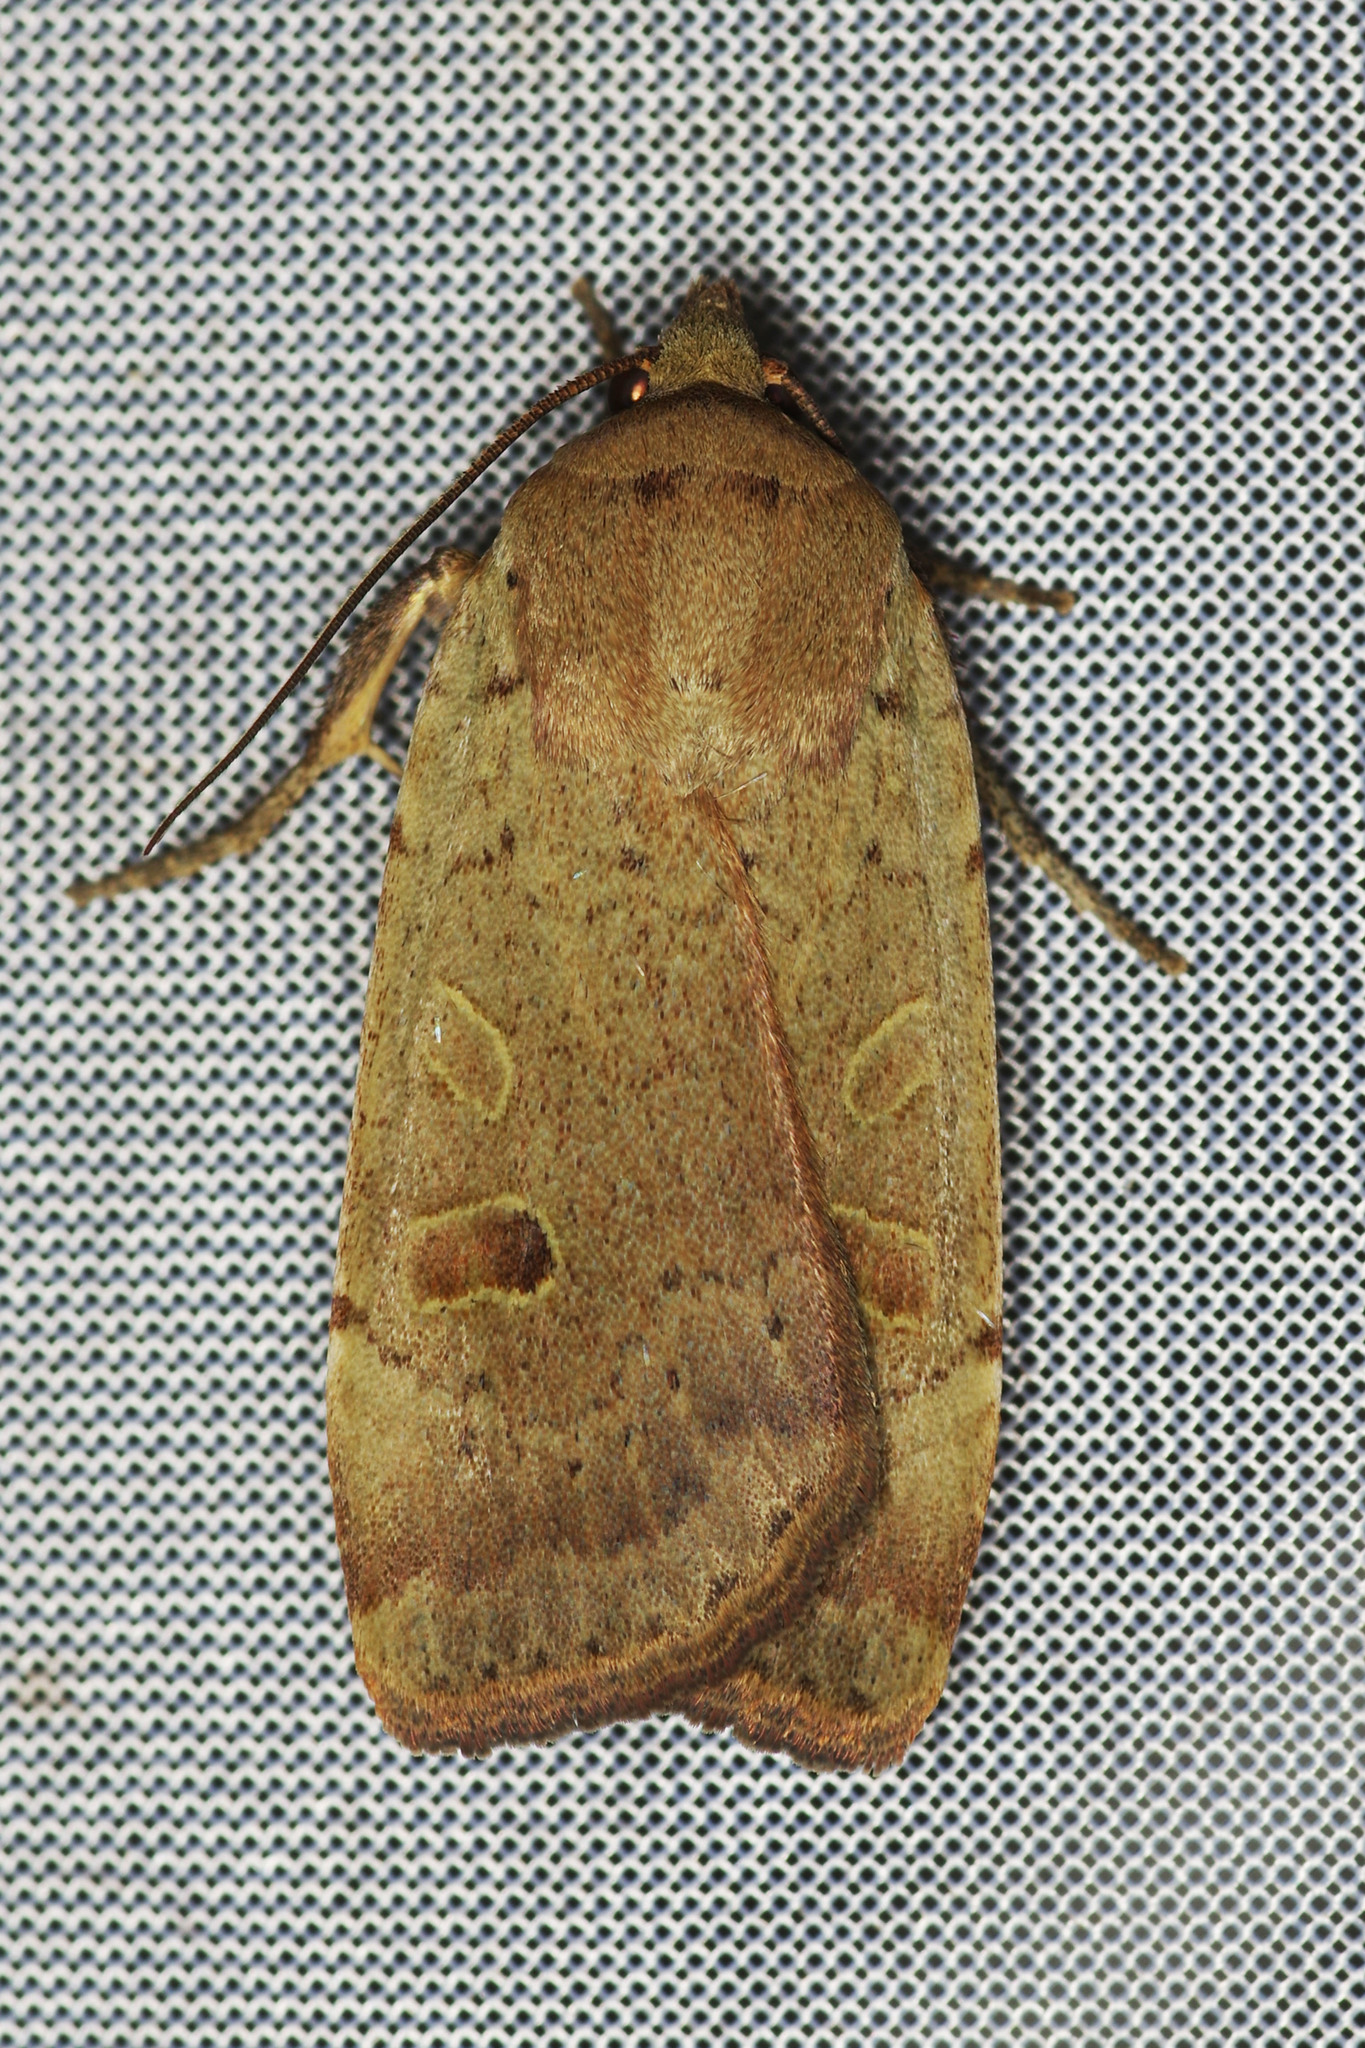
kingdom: Animalia
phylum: Arthropoda
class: Insecta
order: Lepidoptera
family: Noctuidae
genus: Noctua
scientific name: Noctua comes
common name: Lesser yellow underwing
